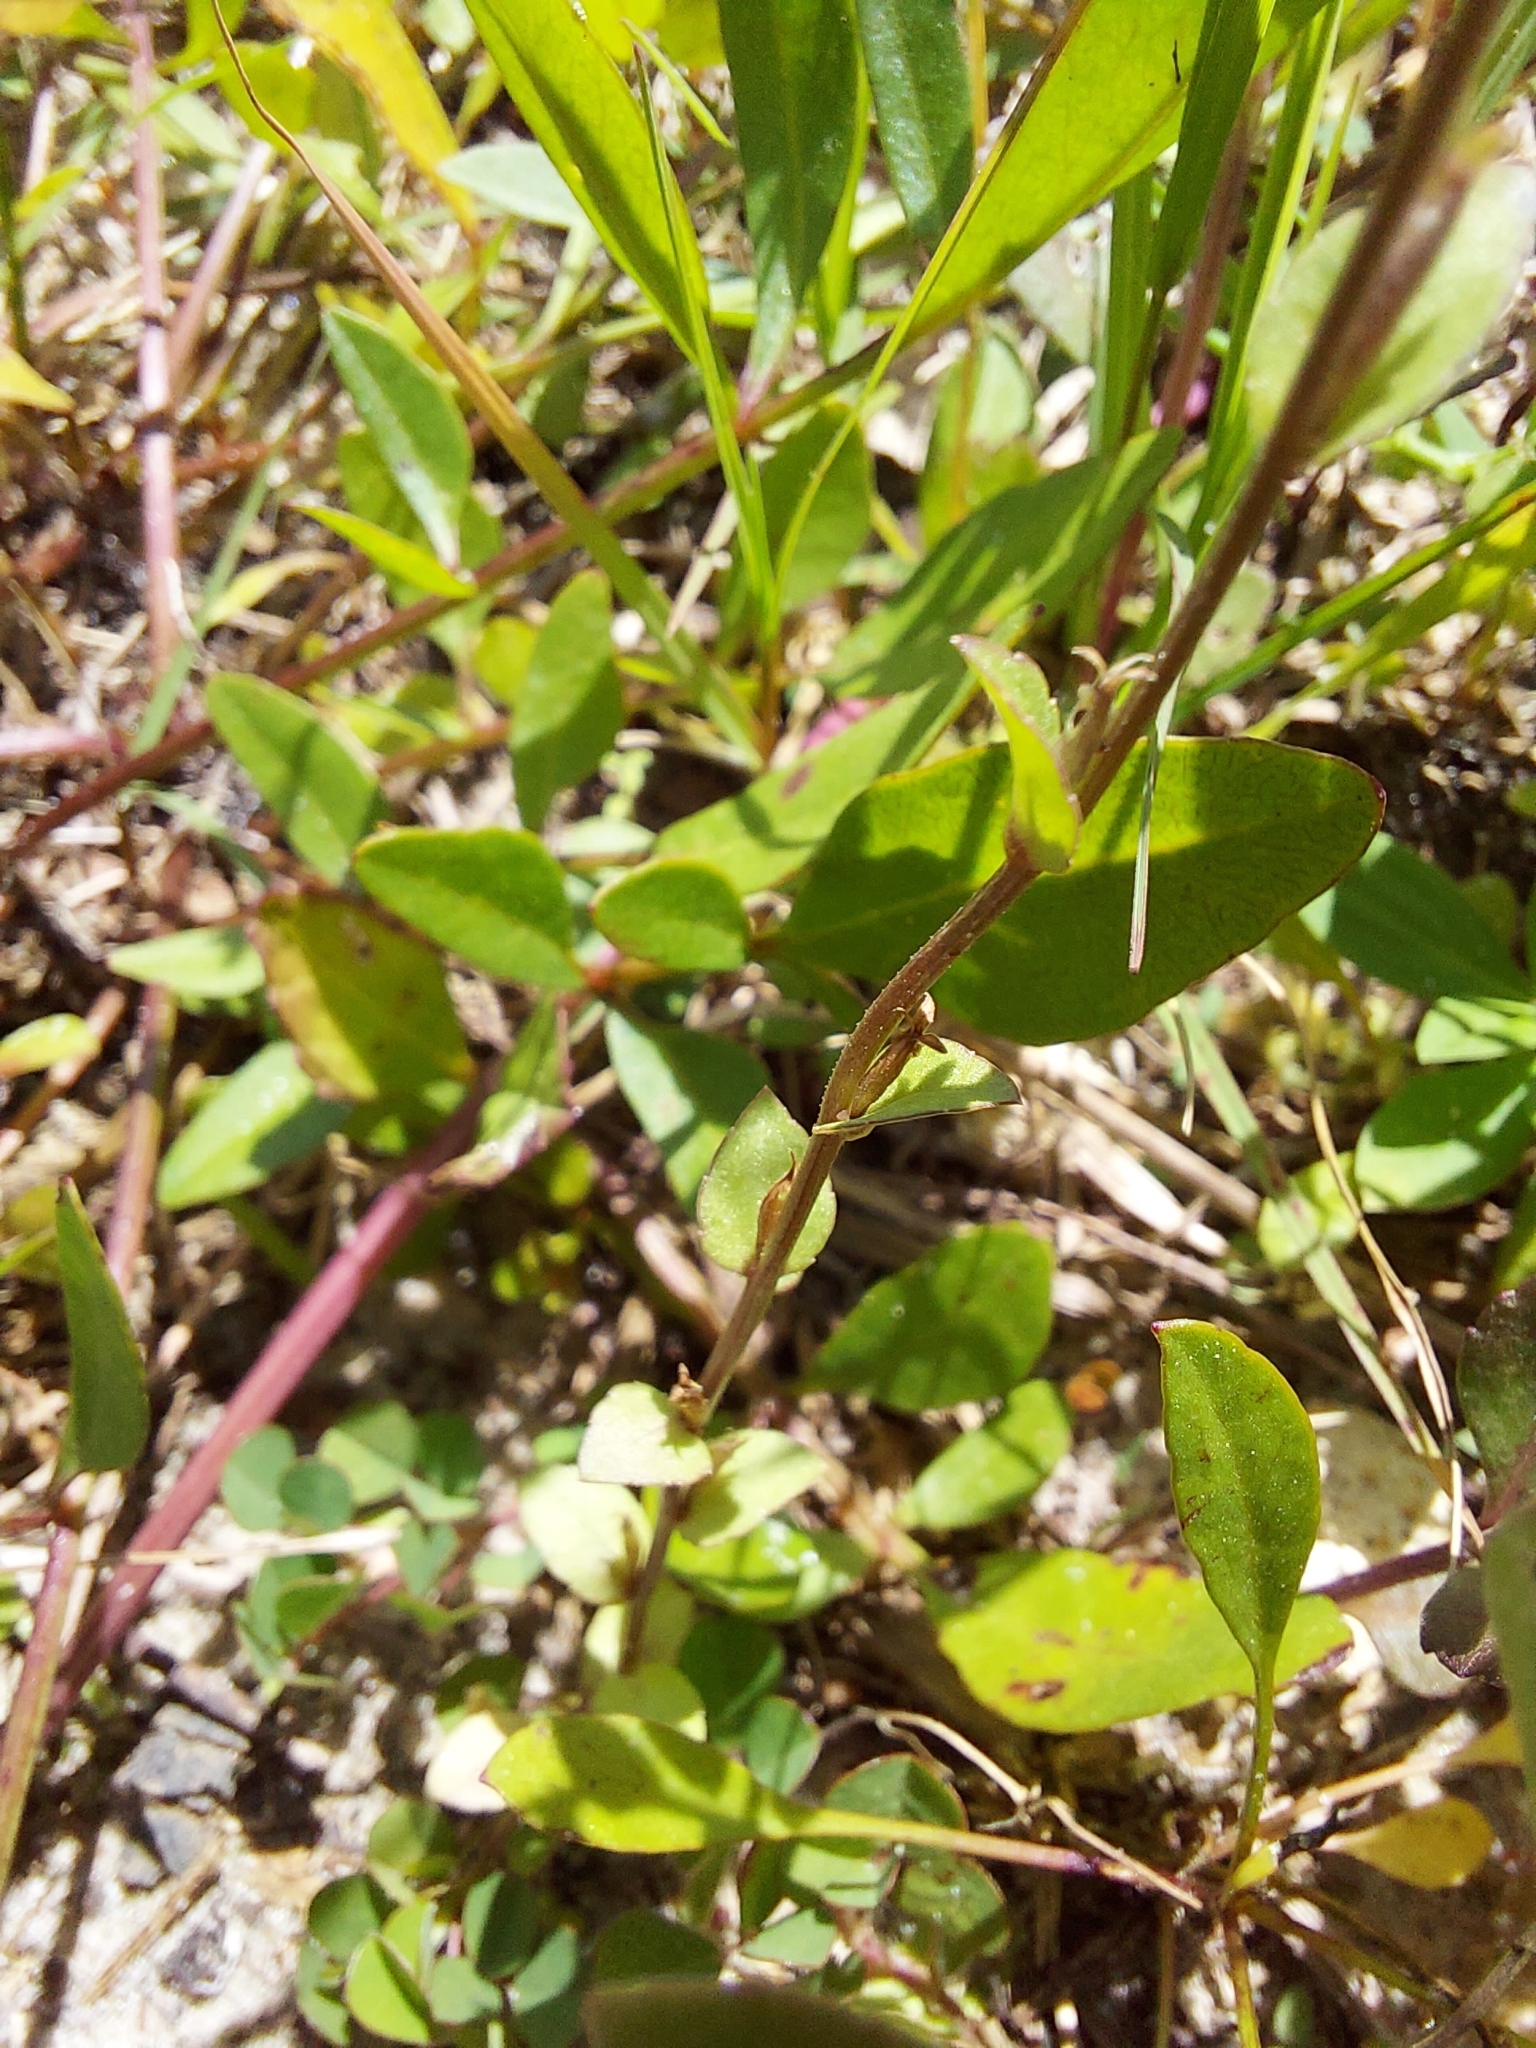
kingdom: Plantae
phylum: Tracheophyta
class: Magnoliopsida
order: Asterales
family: Campanulaceae
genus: Triodanis
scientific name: Triodanis biflora
